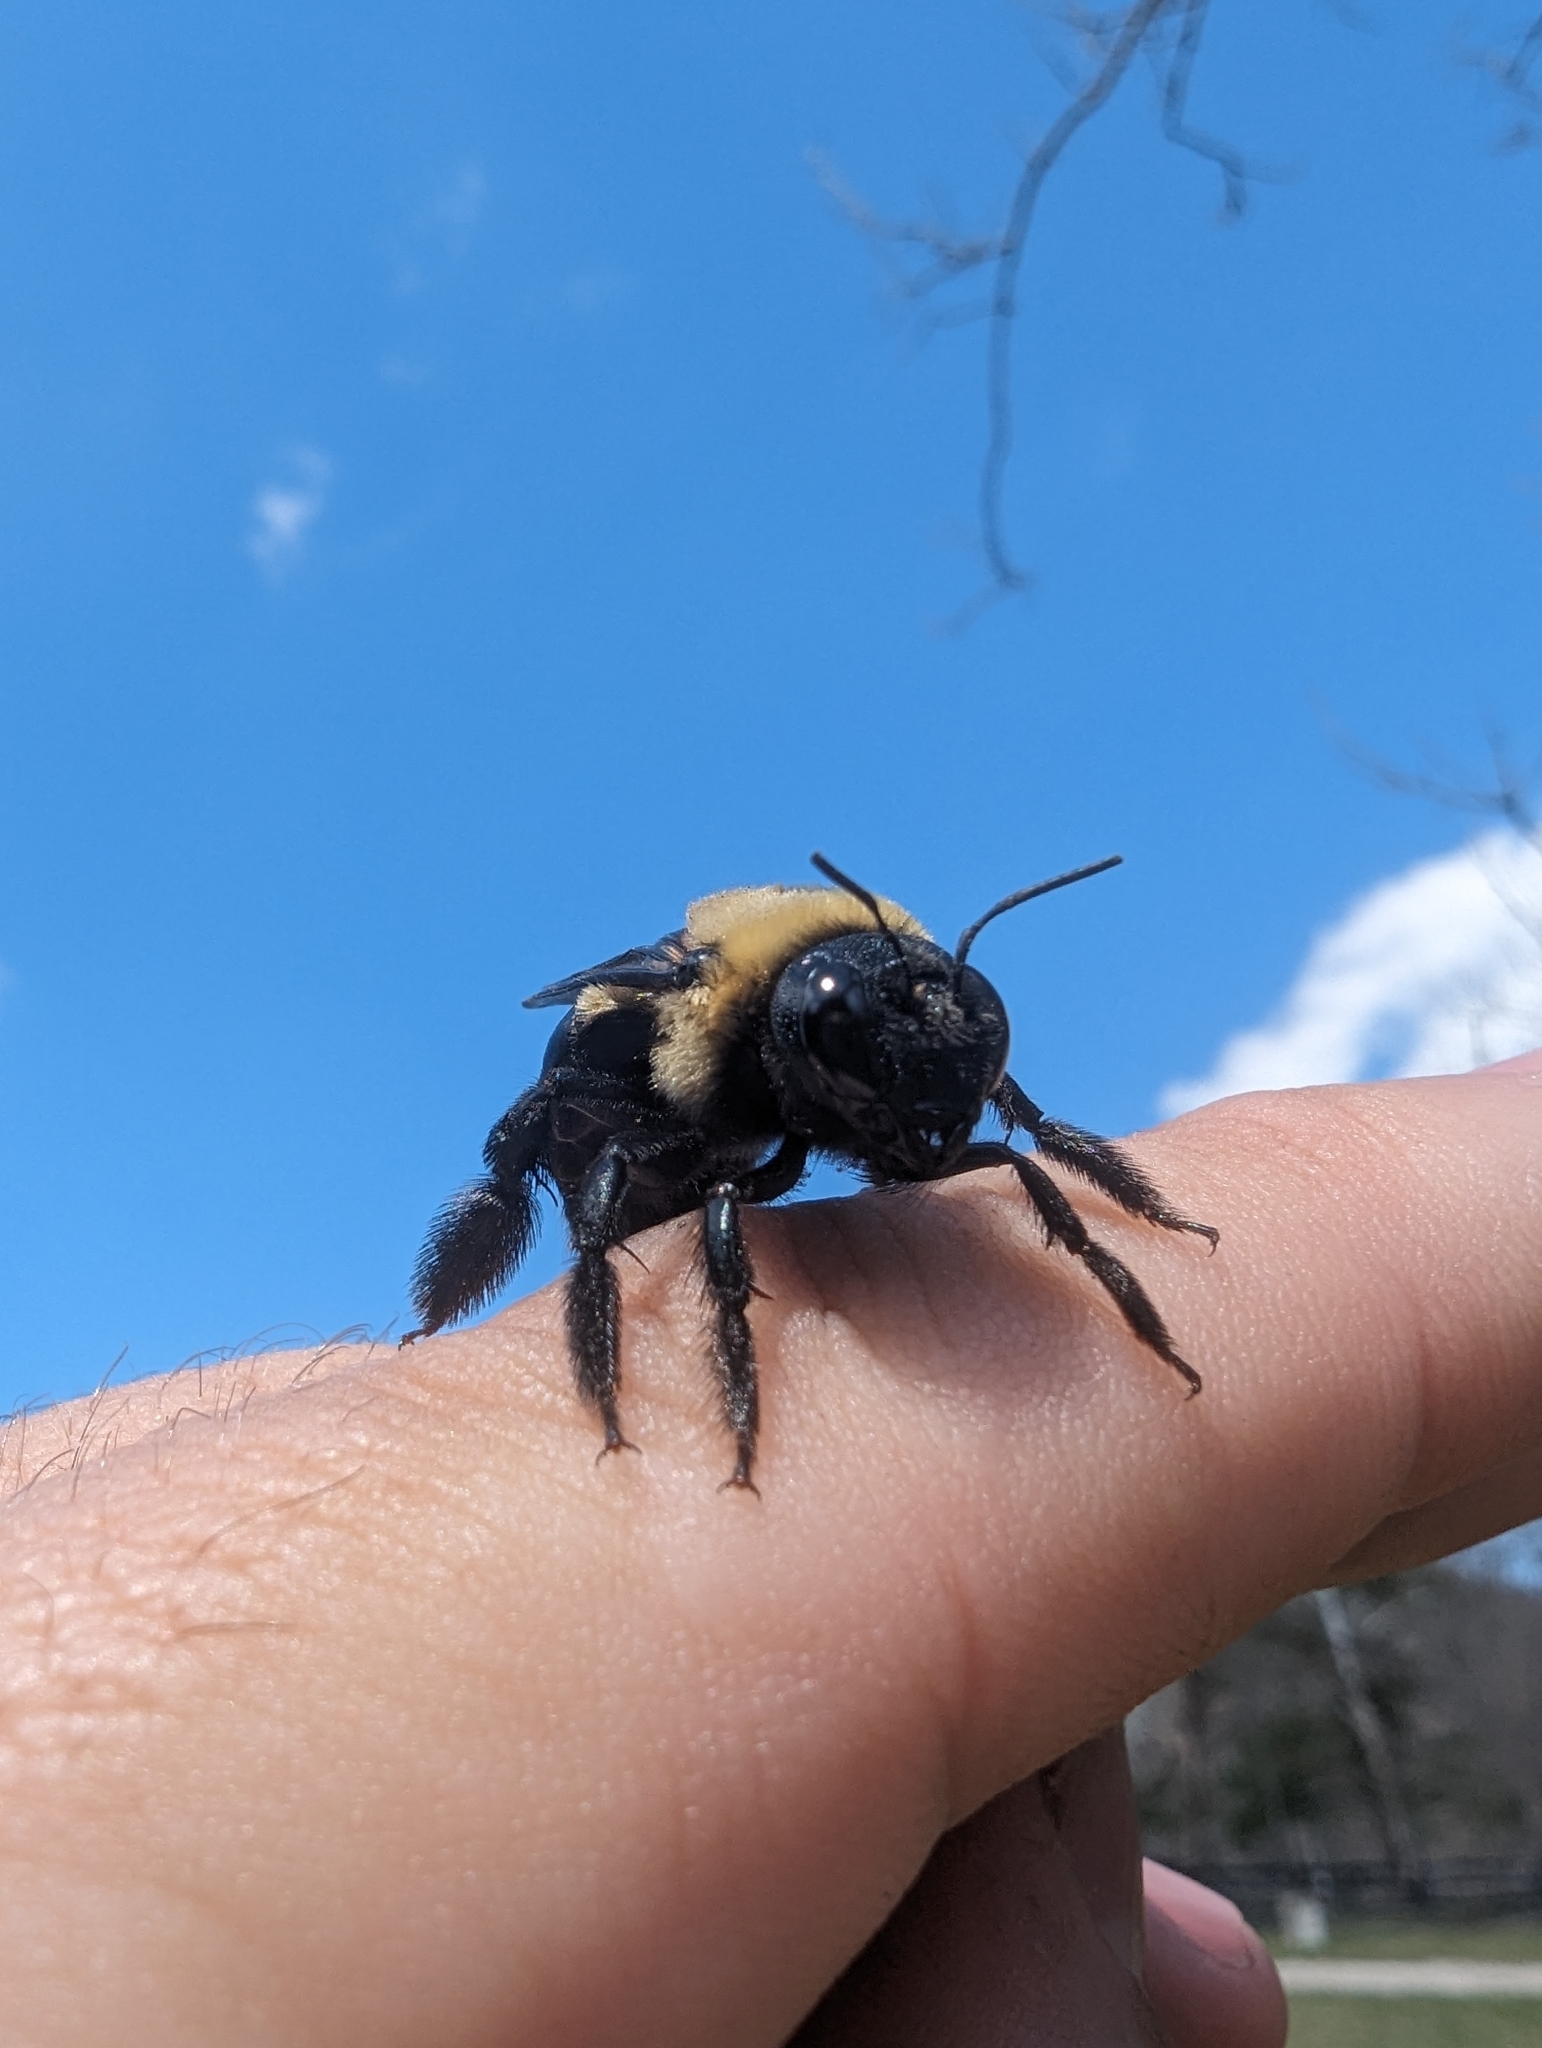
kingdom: Animalia
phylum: Arthropoda
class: Insecta
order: Hymenoptera
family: Apidae
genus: Xylocopa
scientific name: Xylocopa virginica
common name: Carpenter bee
